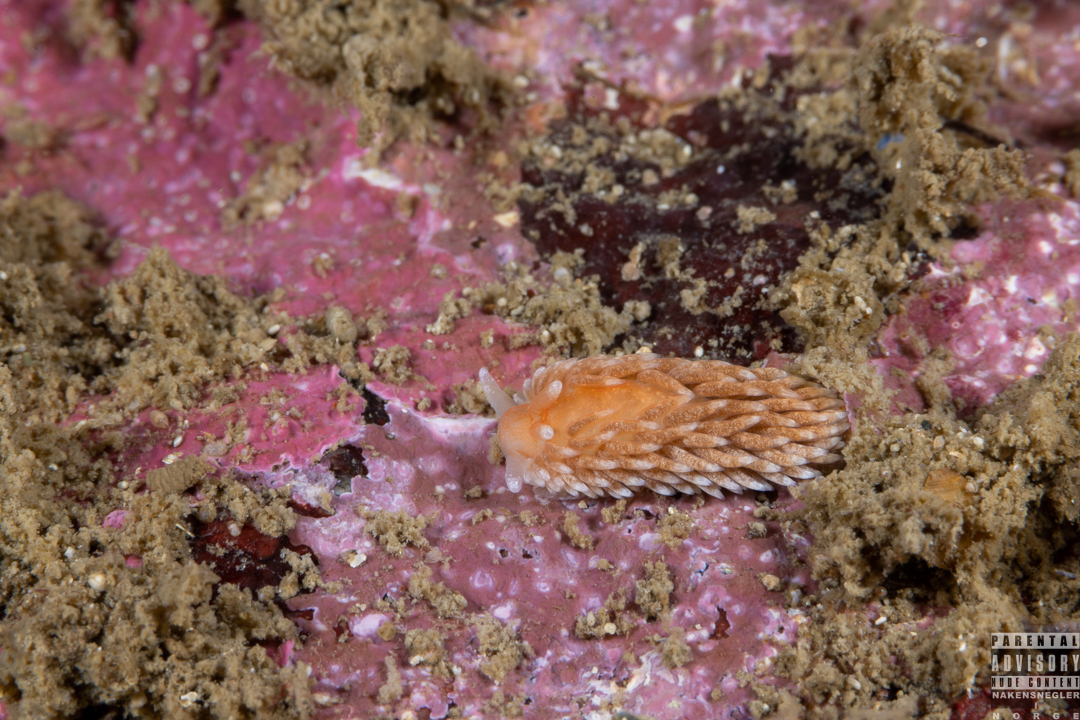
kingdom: Animalia
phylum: Mollusca
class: Gastropoda
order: Nudibranchia
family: Aeolidiidae
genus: Aeolidiella
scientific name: Aeolidiella glauca
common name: Orange-brown aeolid
